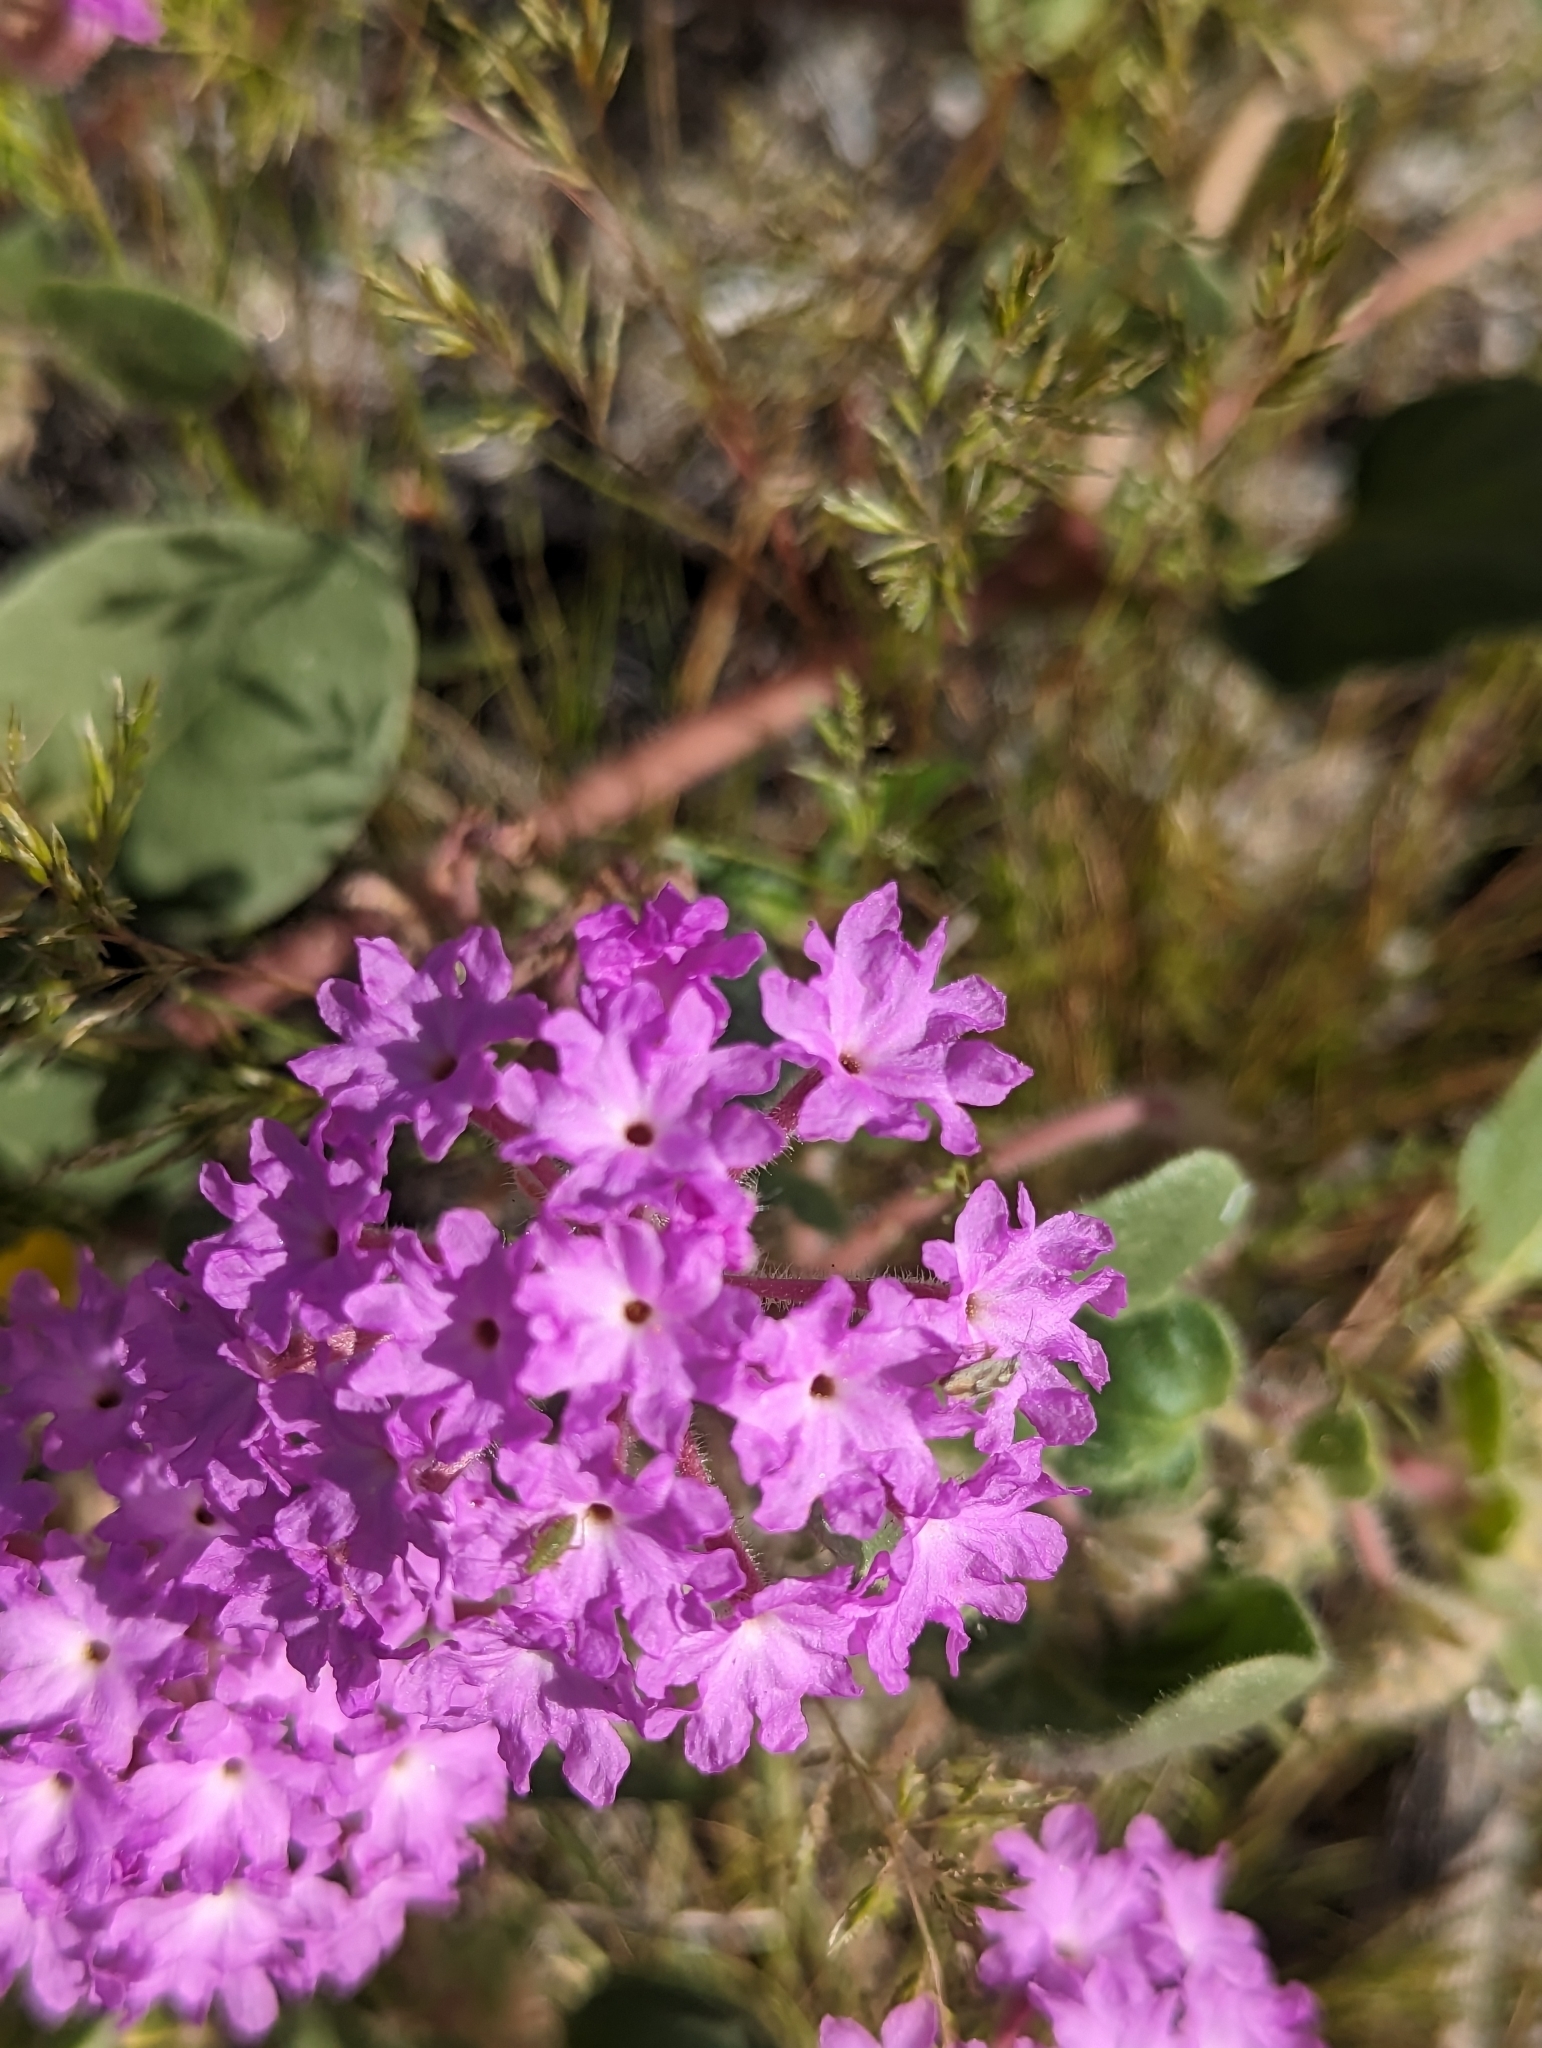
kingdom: Plantae
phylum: Tracheophyta
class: Magnoliopsida
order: Caryophyllales
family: Nyctaginaceae
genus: Abronia
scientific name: Abronia villosa
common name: Desert sand-verbena
